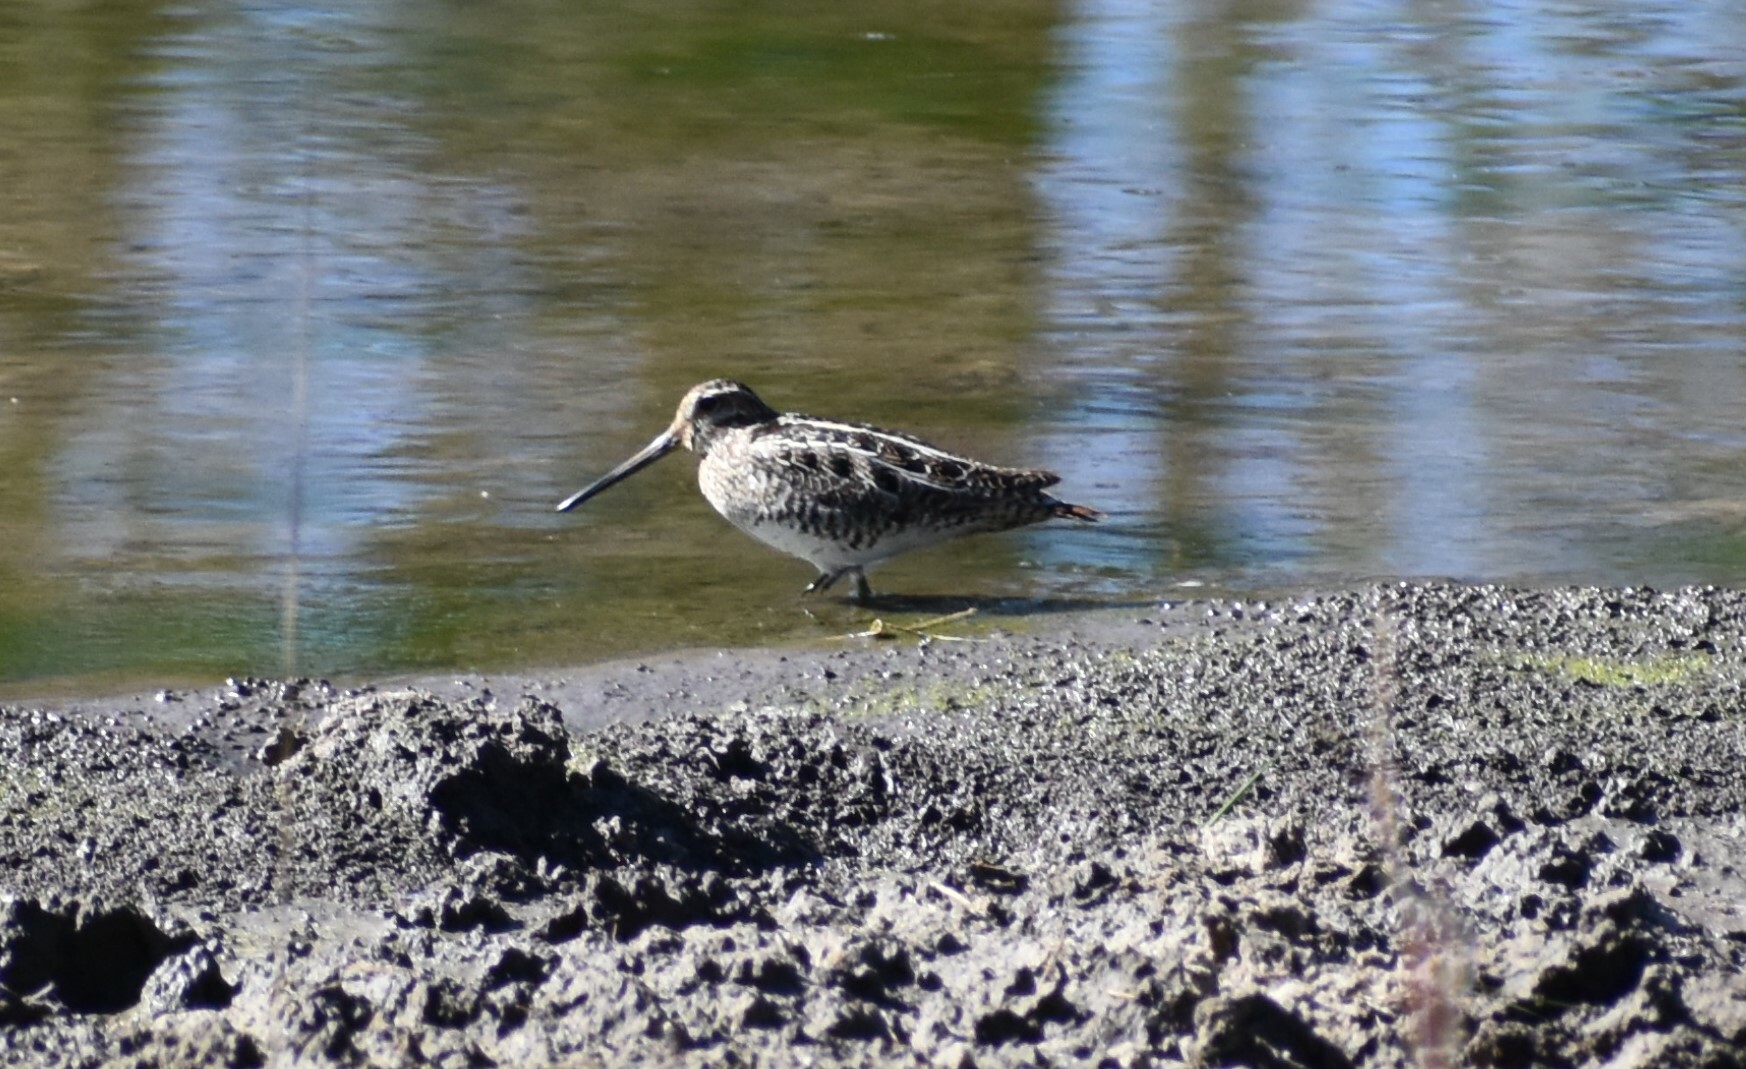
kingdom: Animalia
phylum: Chordata
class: Aves
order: Charadriiformes
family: Scolopacidae
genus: Gallinago
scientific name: Gallinago delicata
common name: Wilson's snipe
